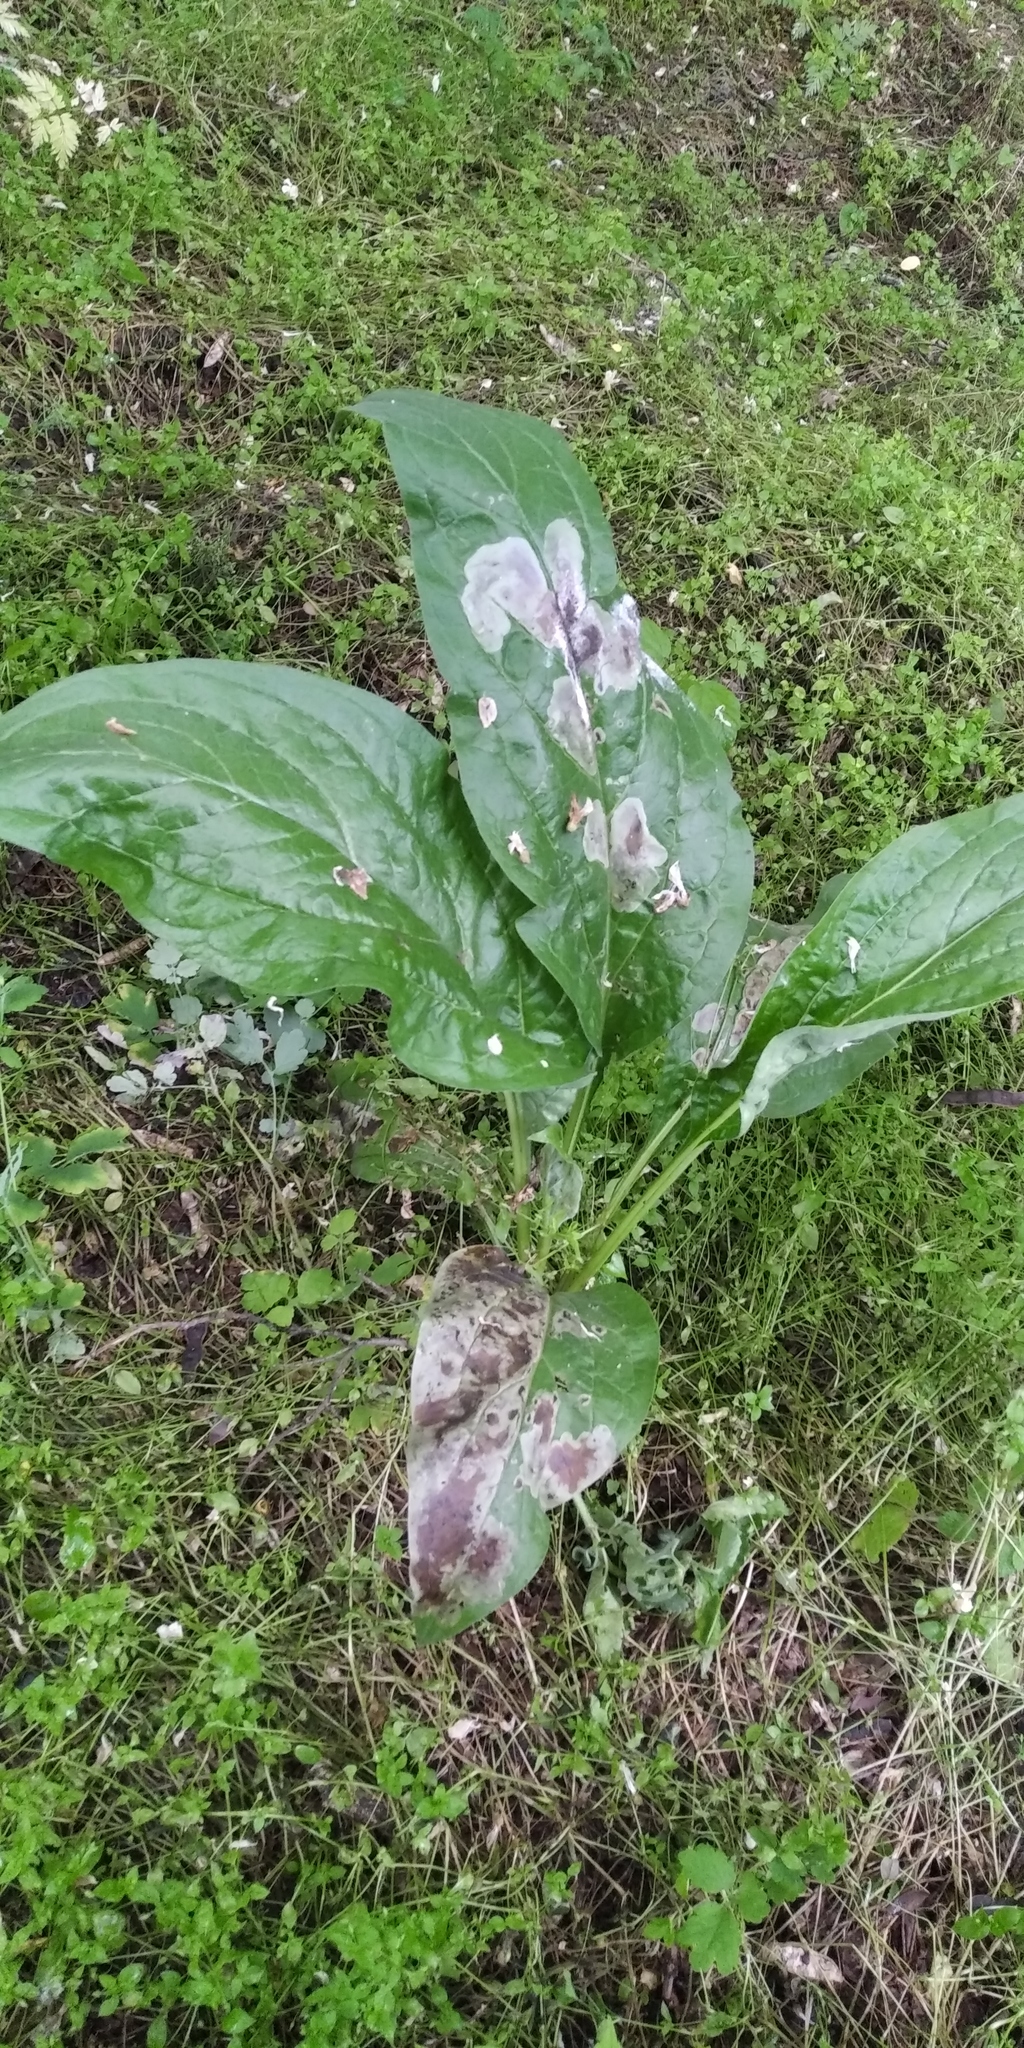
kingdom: Plantae
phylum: Tracheophyta
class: Magnoliopsida
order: Boraginales
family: Boraginaceae
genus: Cynoglossum
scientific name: Cynoglossum officinale
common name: Hound's-tongue
